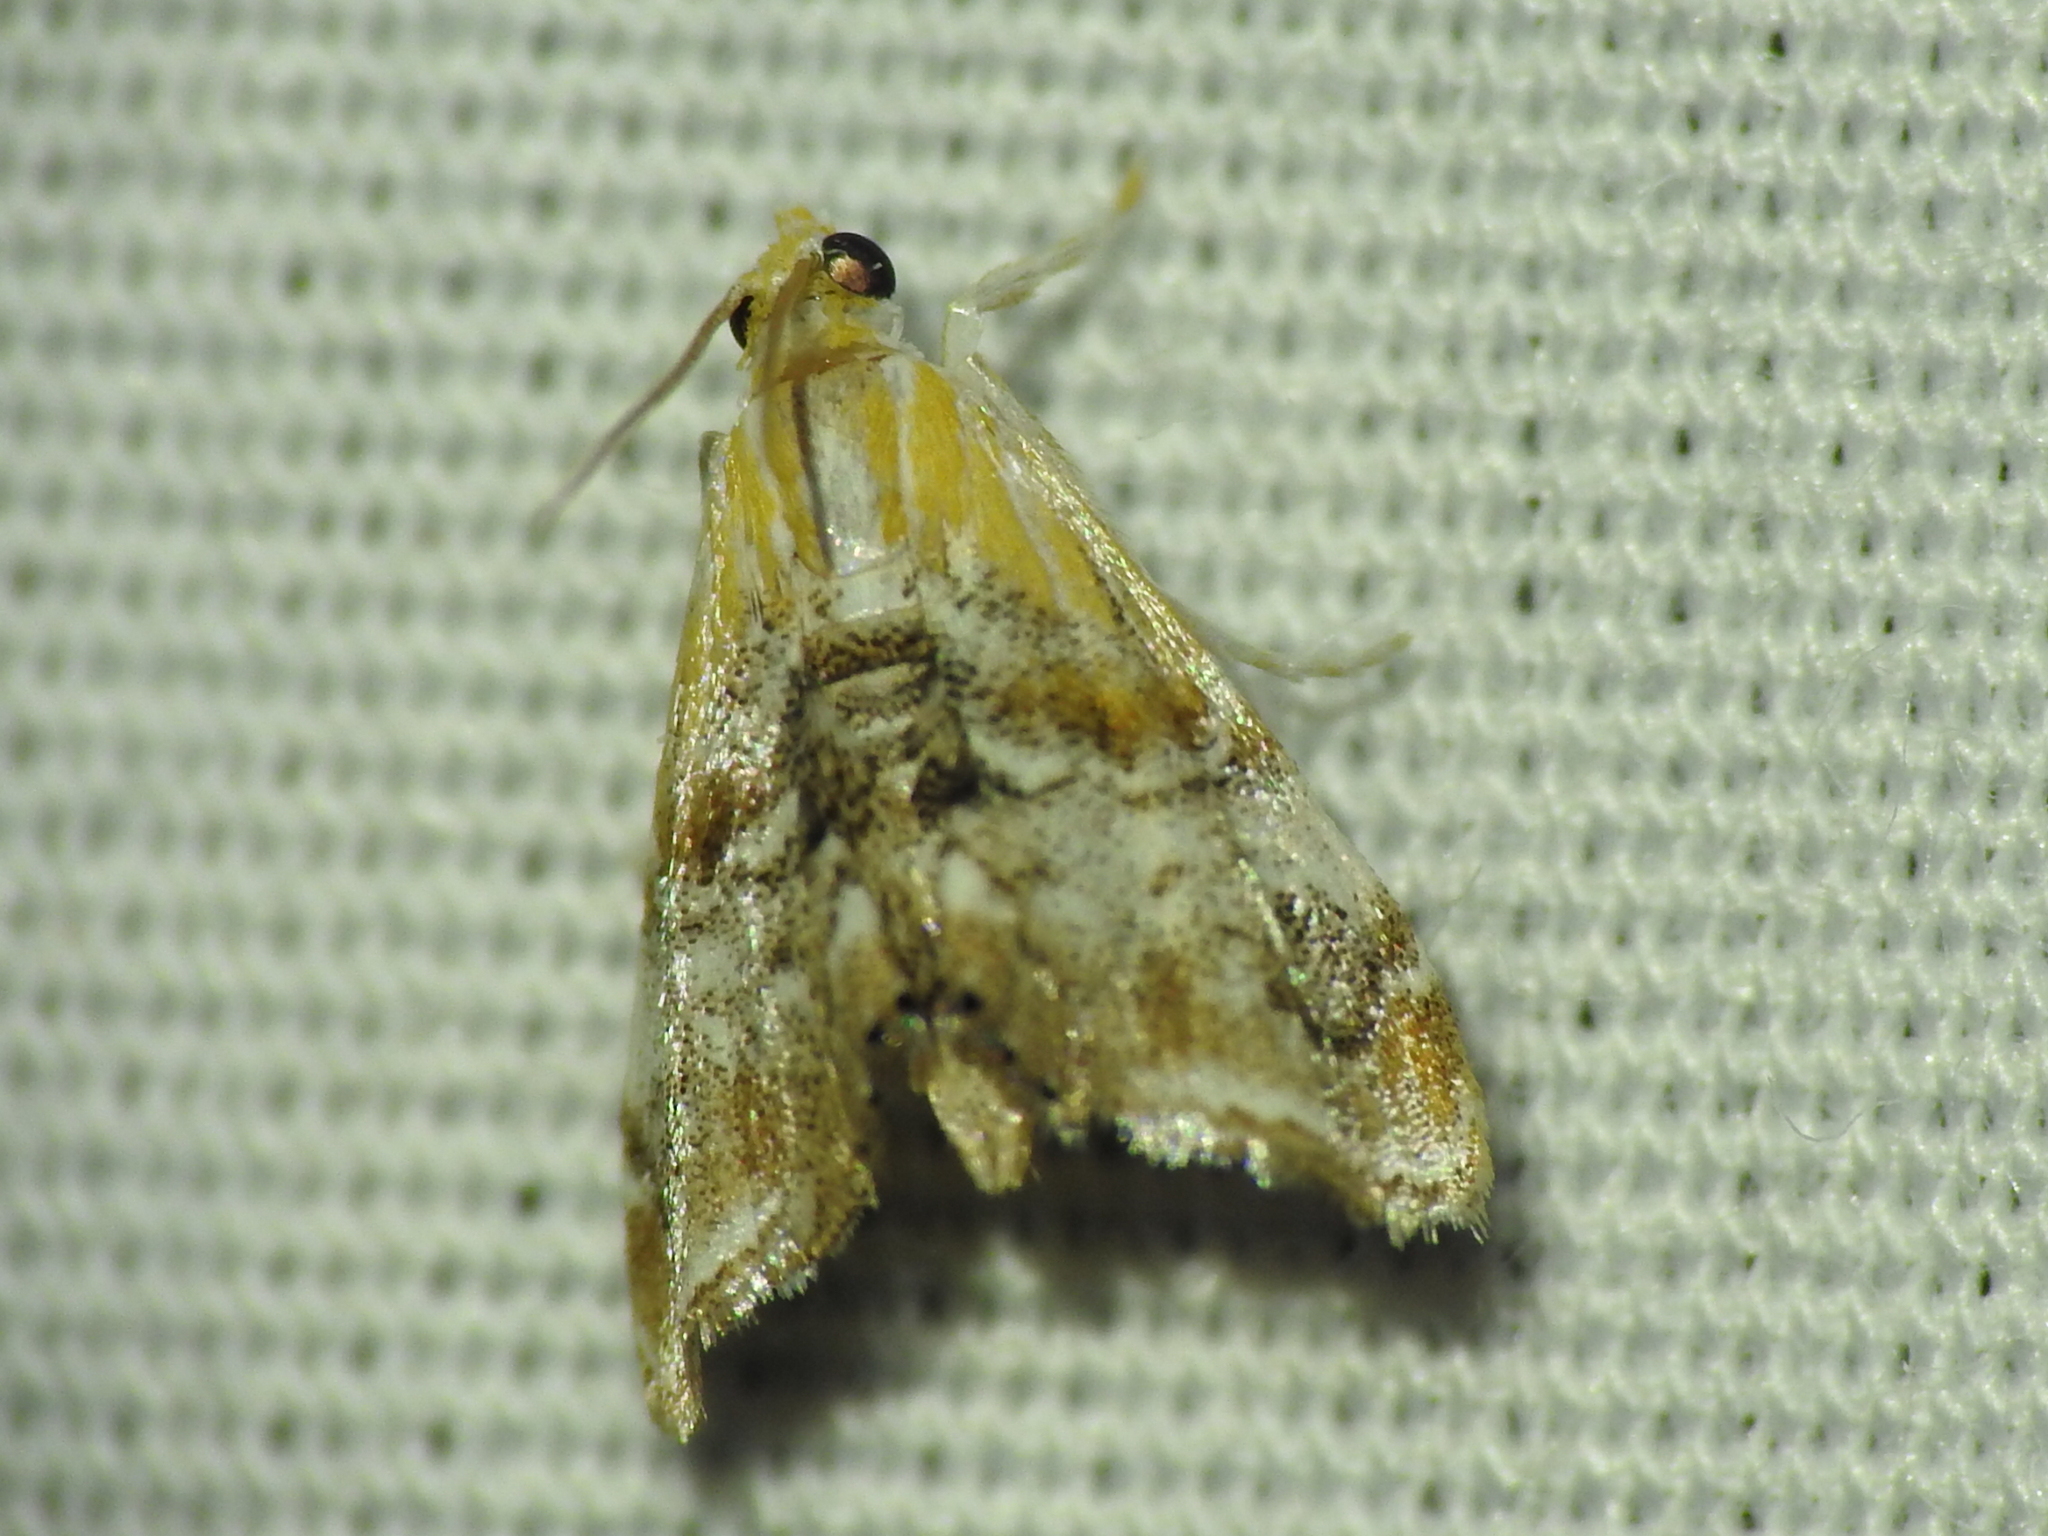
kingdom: Animalia
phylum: Arthropoda
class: Insecta
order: Lepidoptera
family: Crambidae
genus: Dicymolomia
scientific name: Dicymolomia julianalis
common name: Julia's dicymolomia moth
